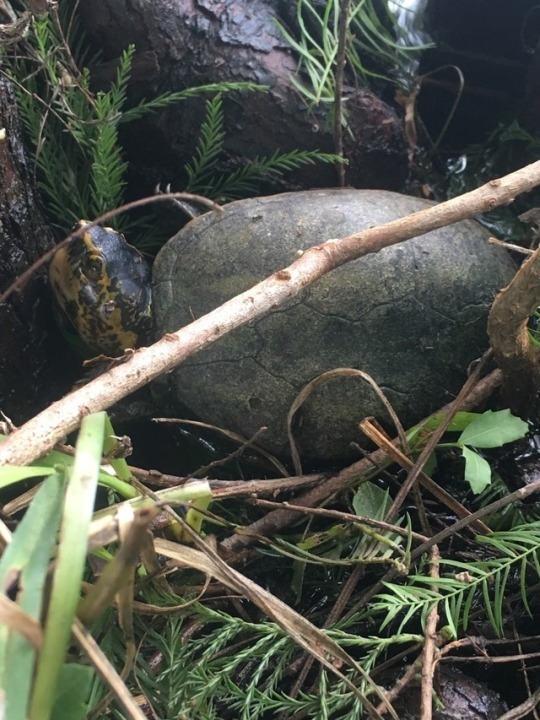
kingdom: Animalia
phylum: Chordata
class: Testudines
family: Kinosternidae
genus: Kinosternon
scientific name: Kinosternon baurii
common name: Striped mud turtle
